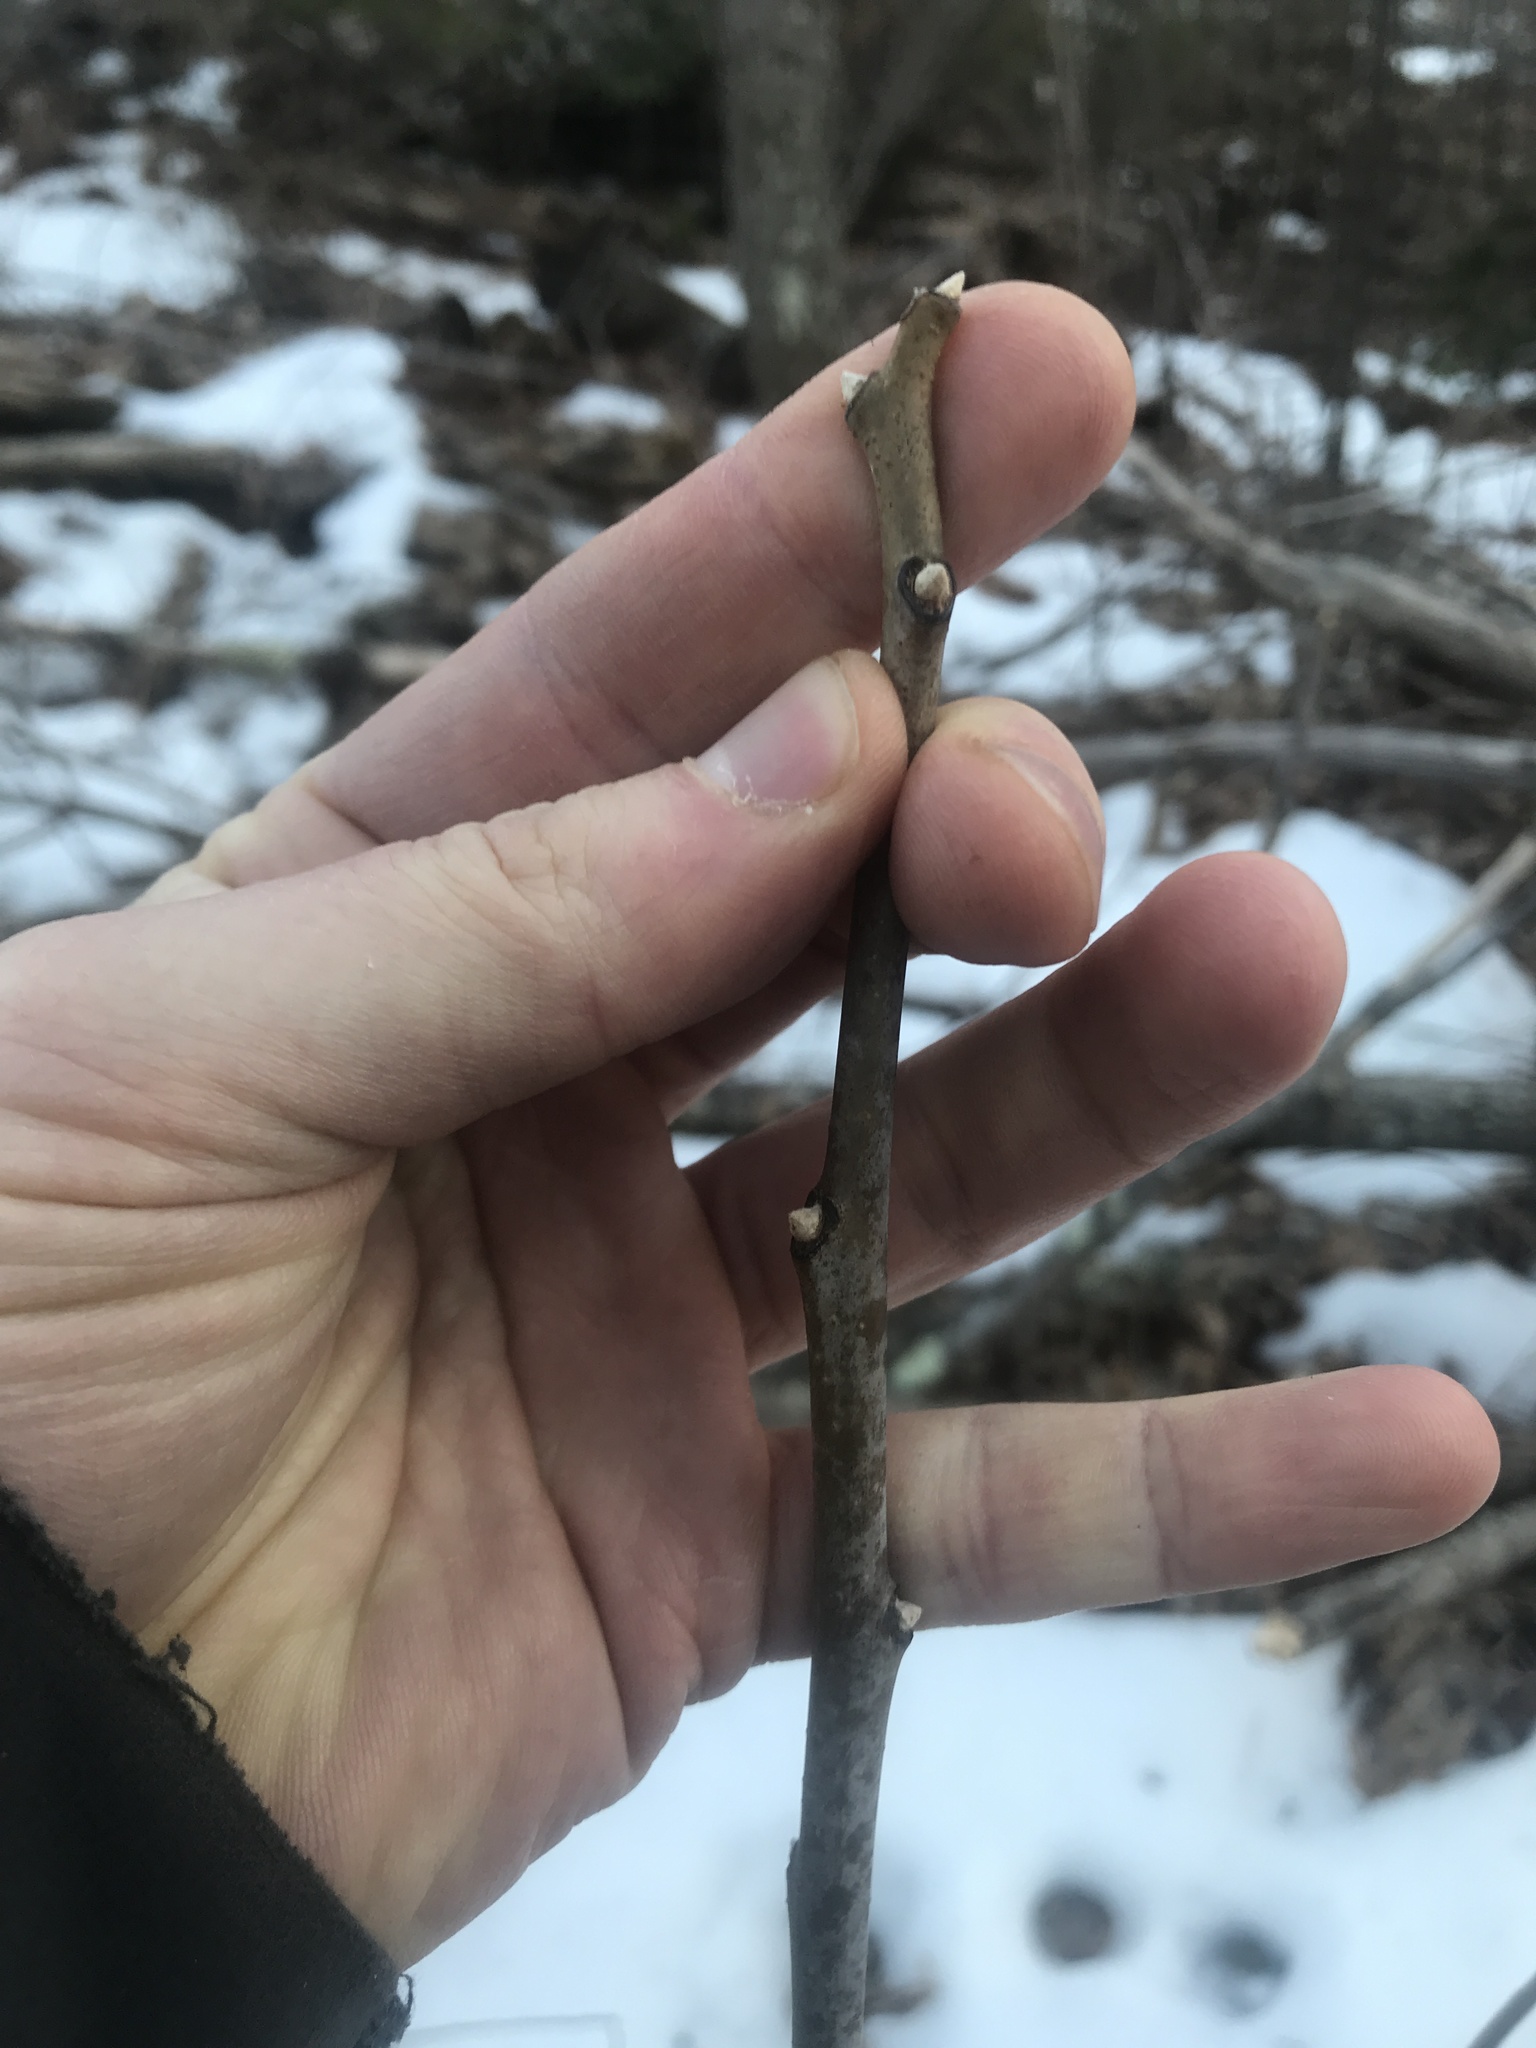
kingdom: Plantae
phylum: Tracheophyta
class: Magnoliopsida
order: Sapindales
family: Anacardiaceae
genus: Rhus
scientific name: Rhus glabra
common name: Scarlet sumac
